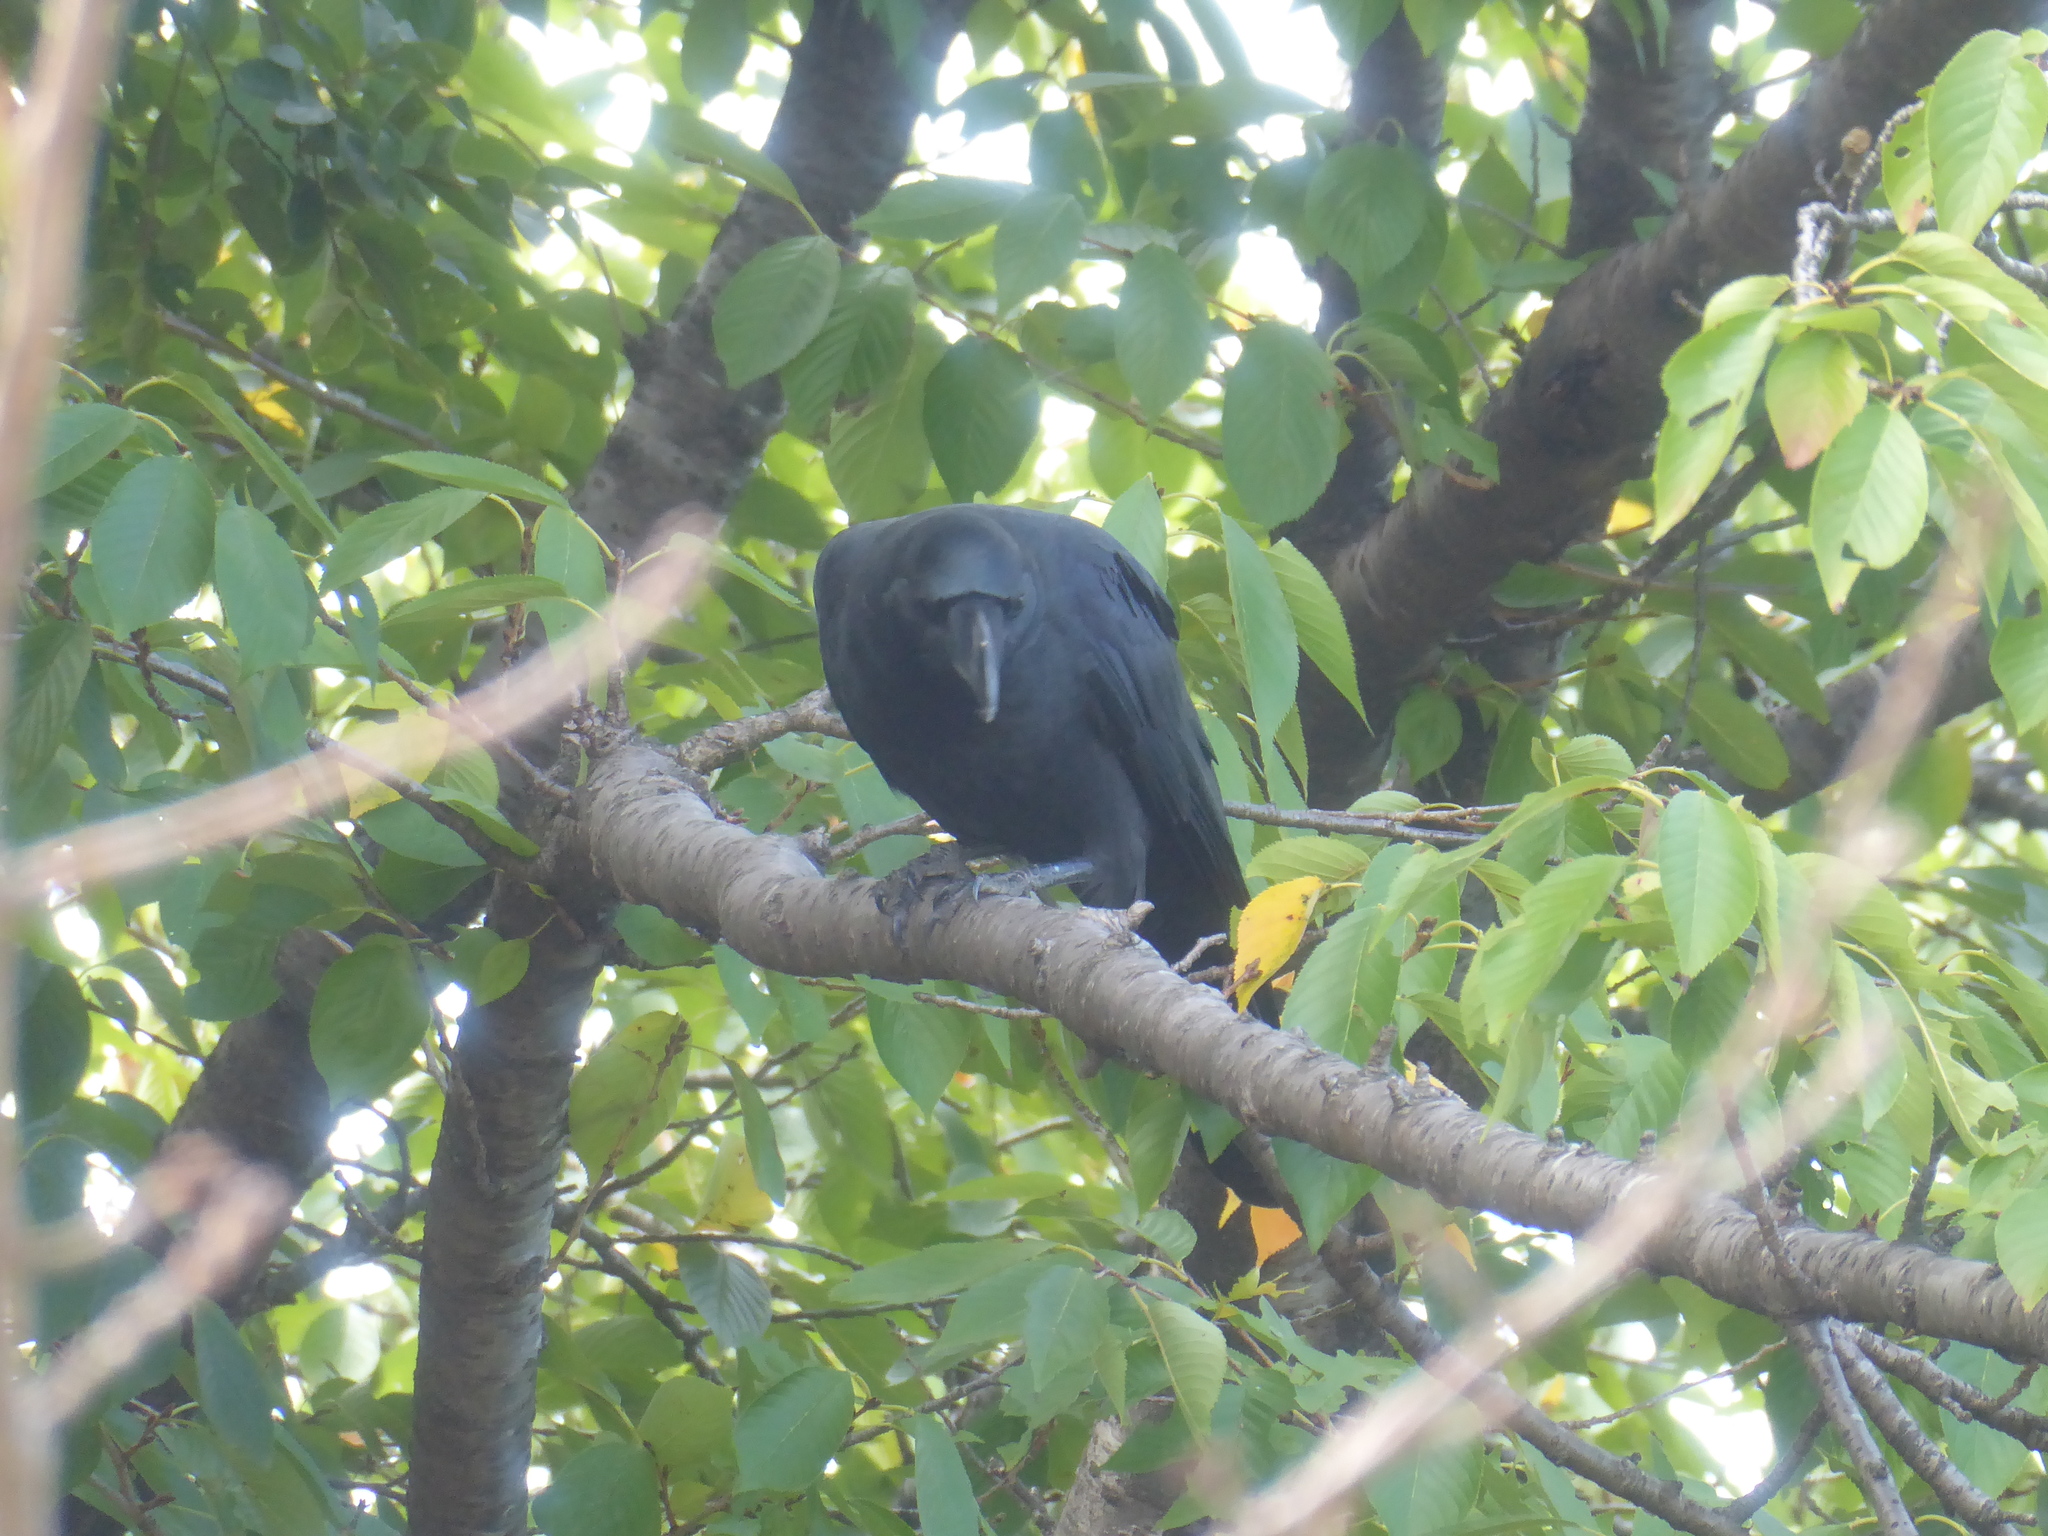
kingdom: Animalia
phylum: Chordata
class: Aves
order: Passeriformes
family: Corvidae
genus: Corvus
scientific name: Corvus macrorhynchos
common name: Large-billed crow
